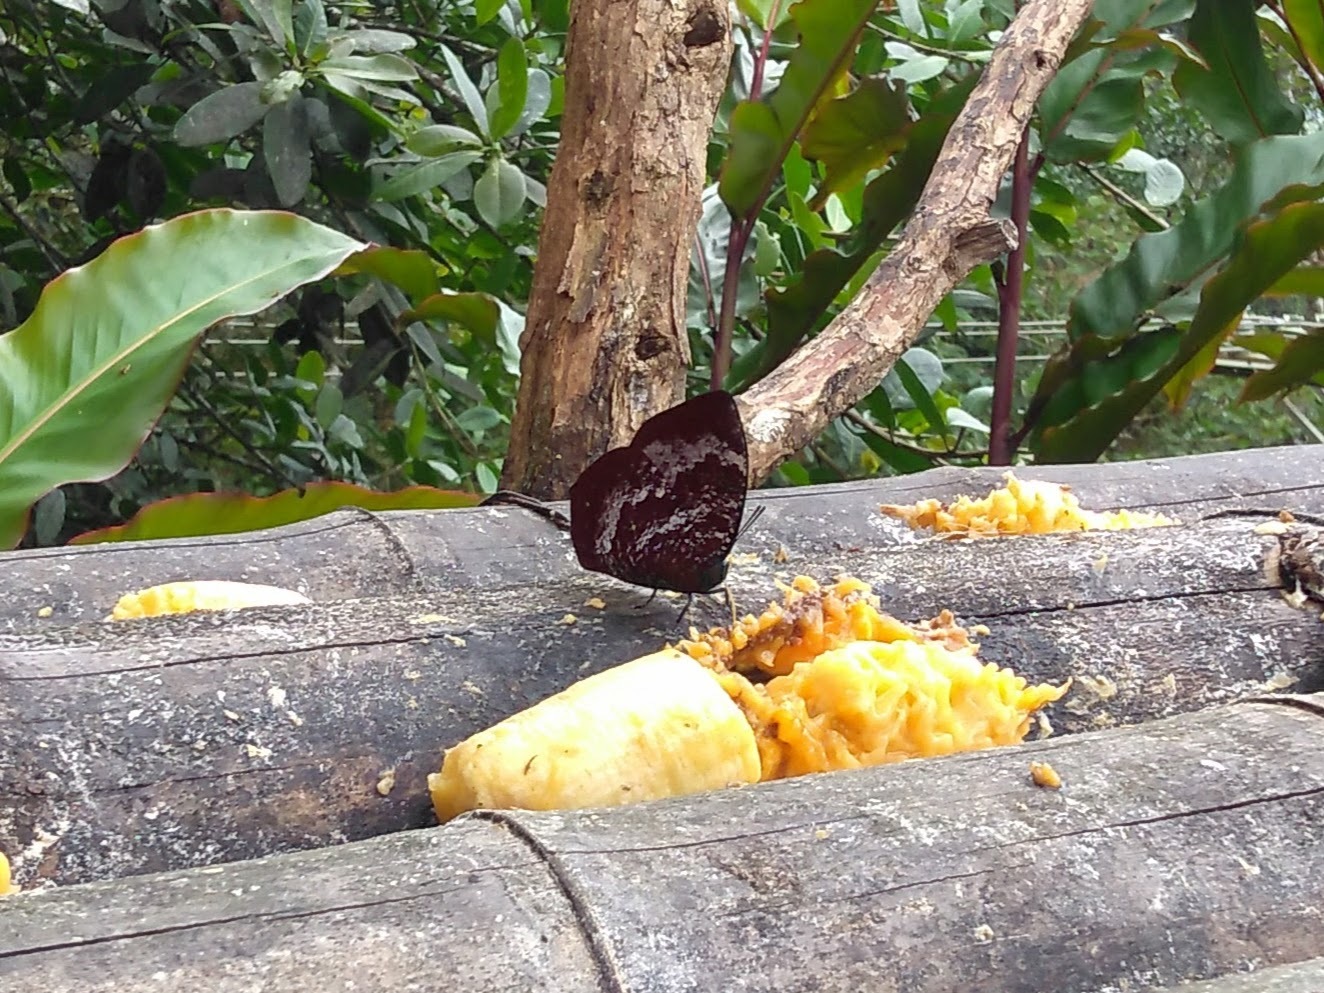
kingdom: Animalia
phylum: Arthropoda
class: Insecta
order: Lepidoptera
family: Nymphalidae
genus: Memphis
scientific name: Memphis
